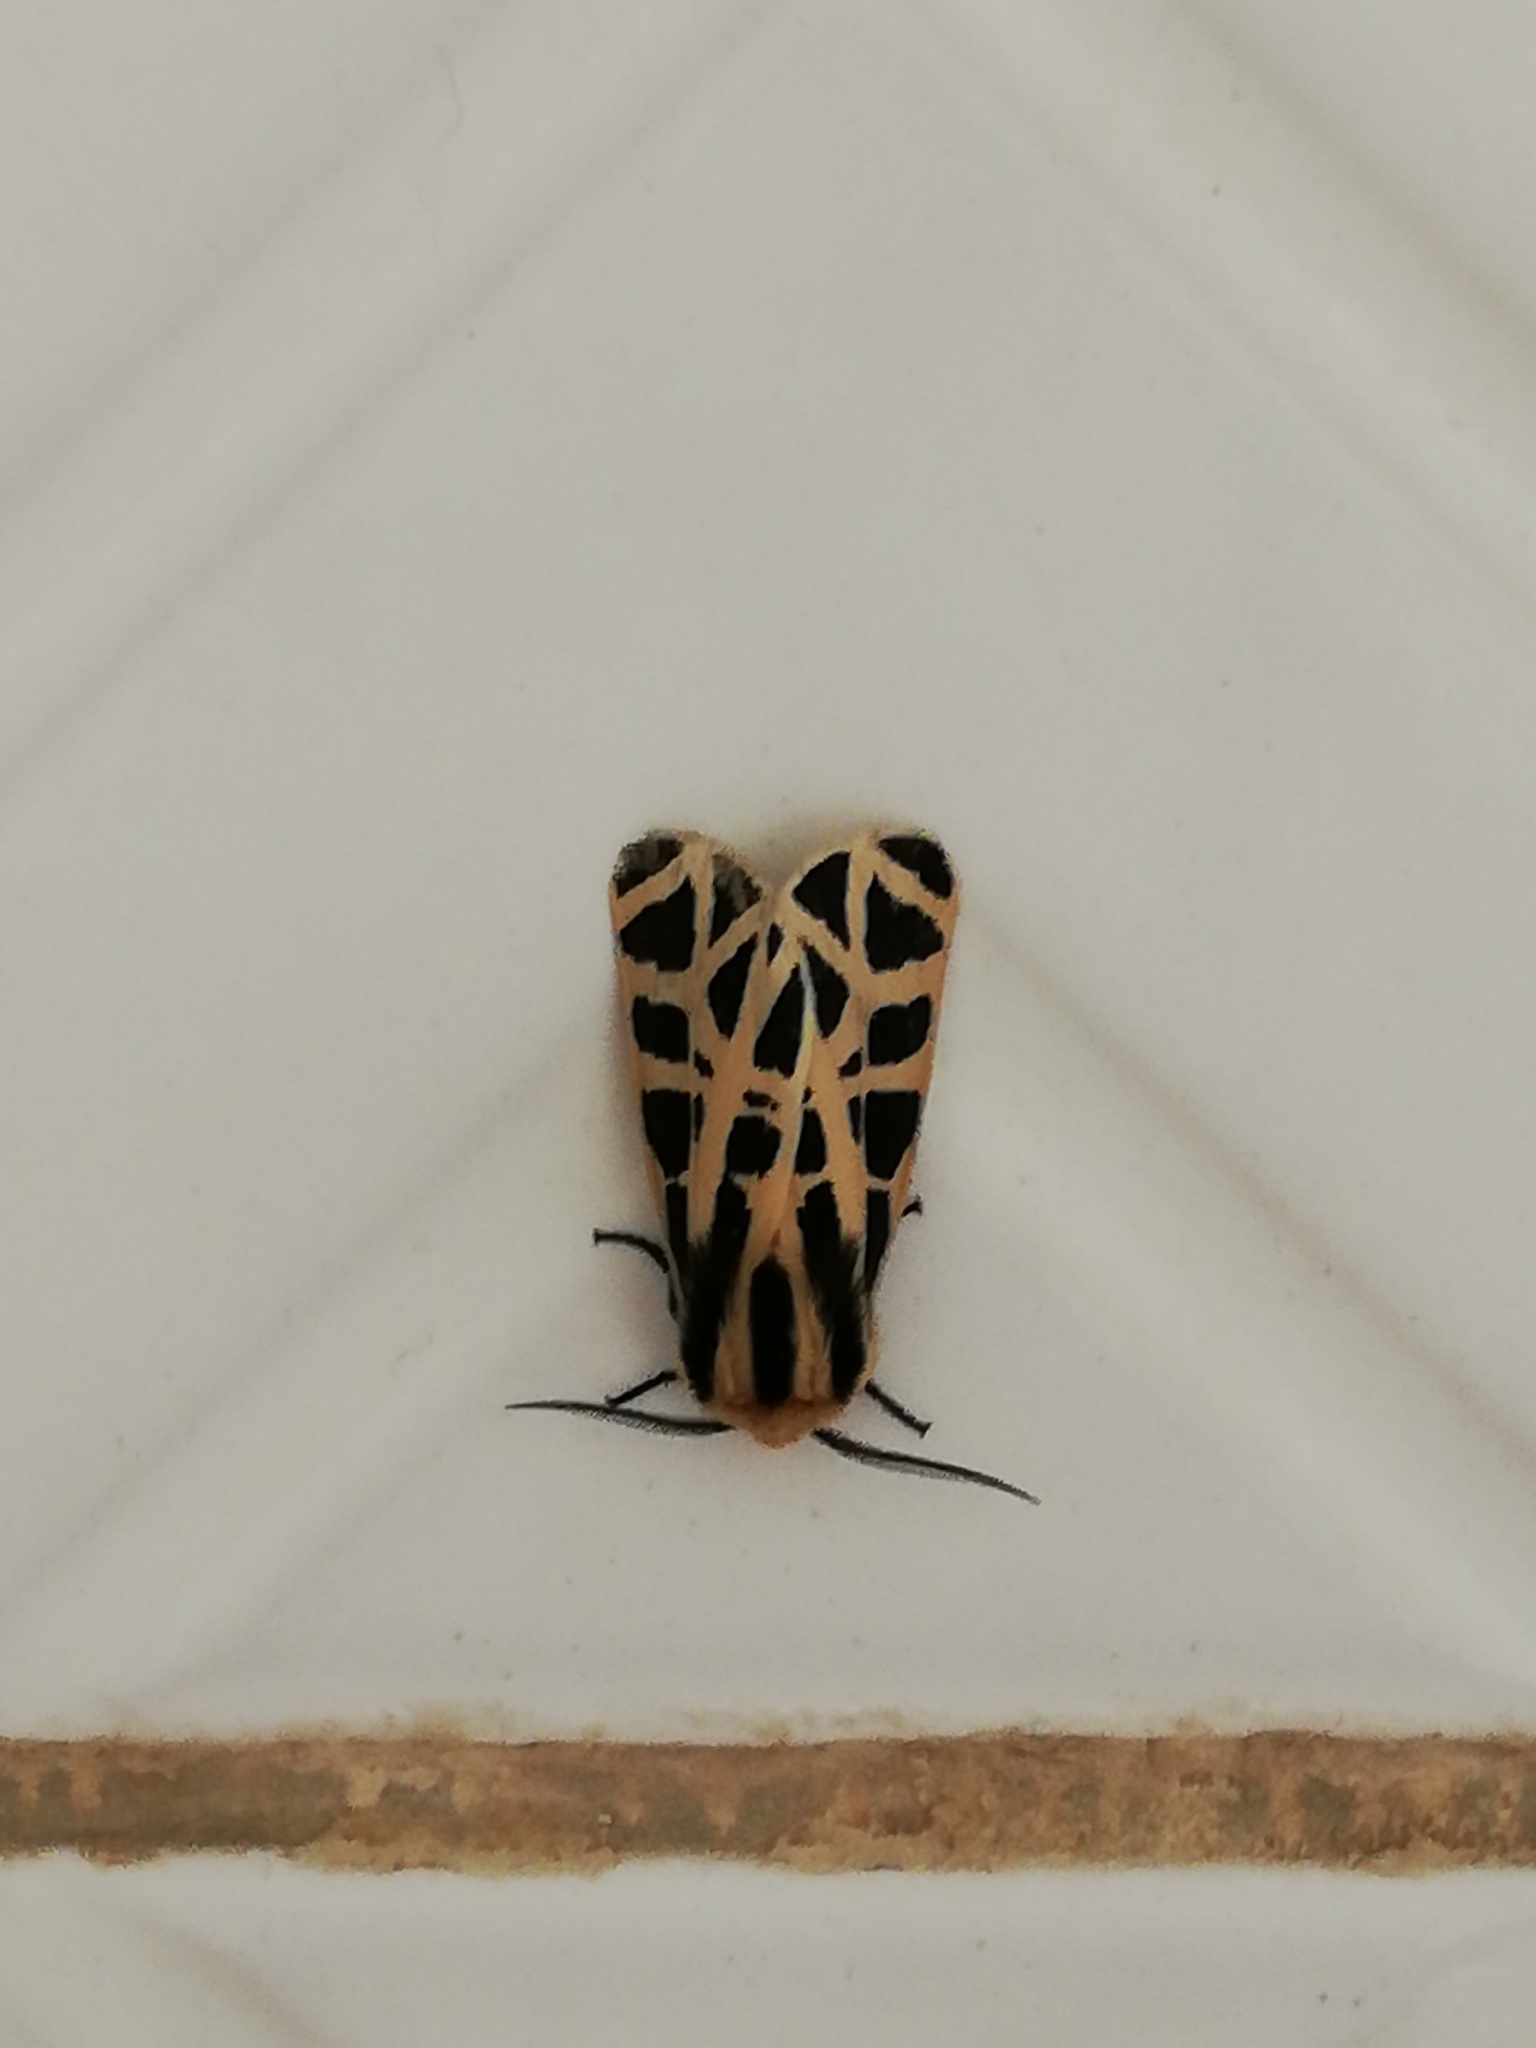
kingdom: Animalia
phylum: Arthropoda
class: Insecta
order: Lepidoptera
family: Erebidae
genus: Apantesis
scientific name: Apantesis
